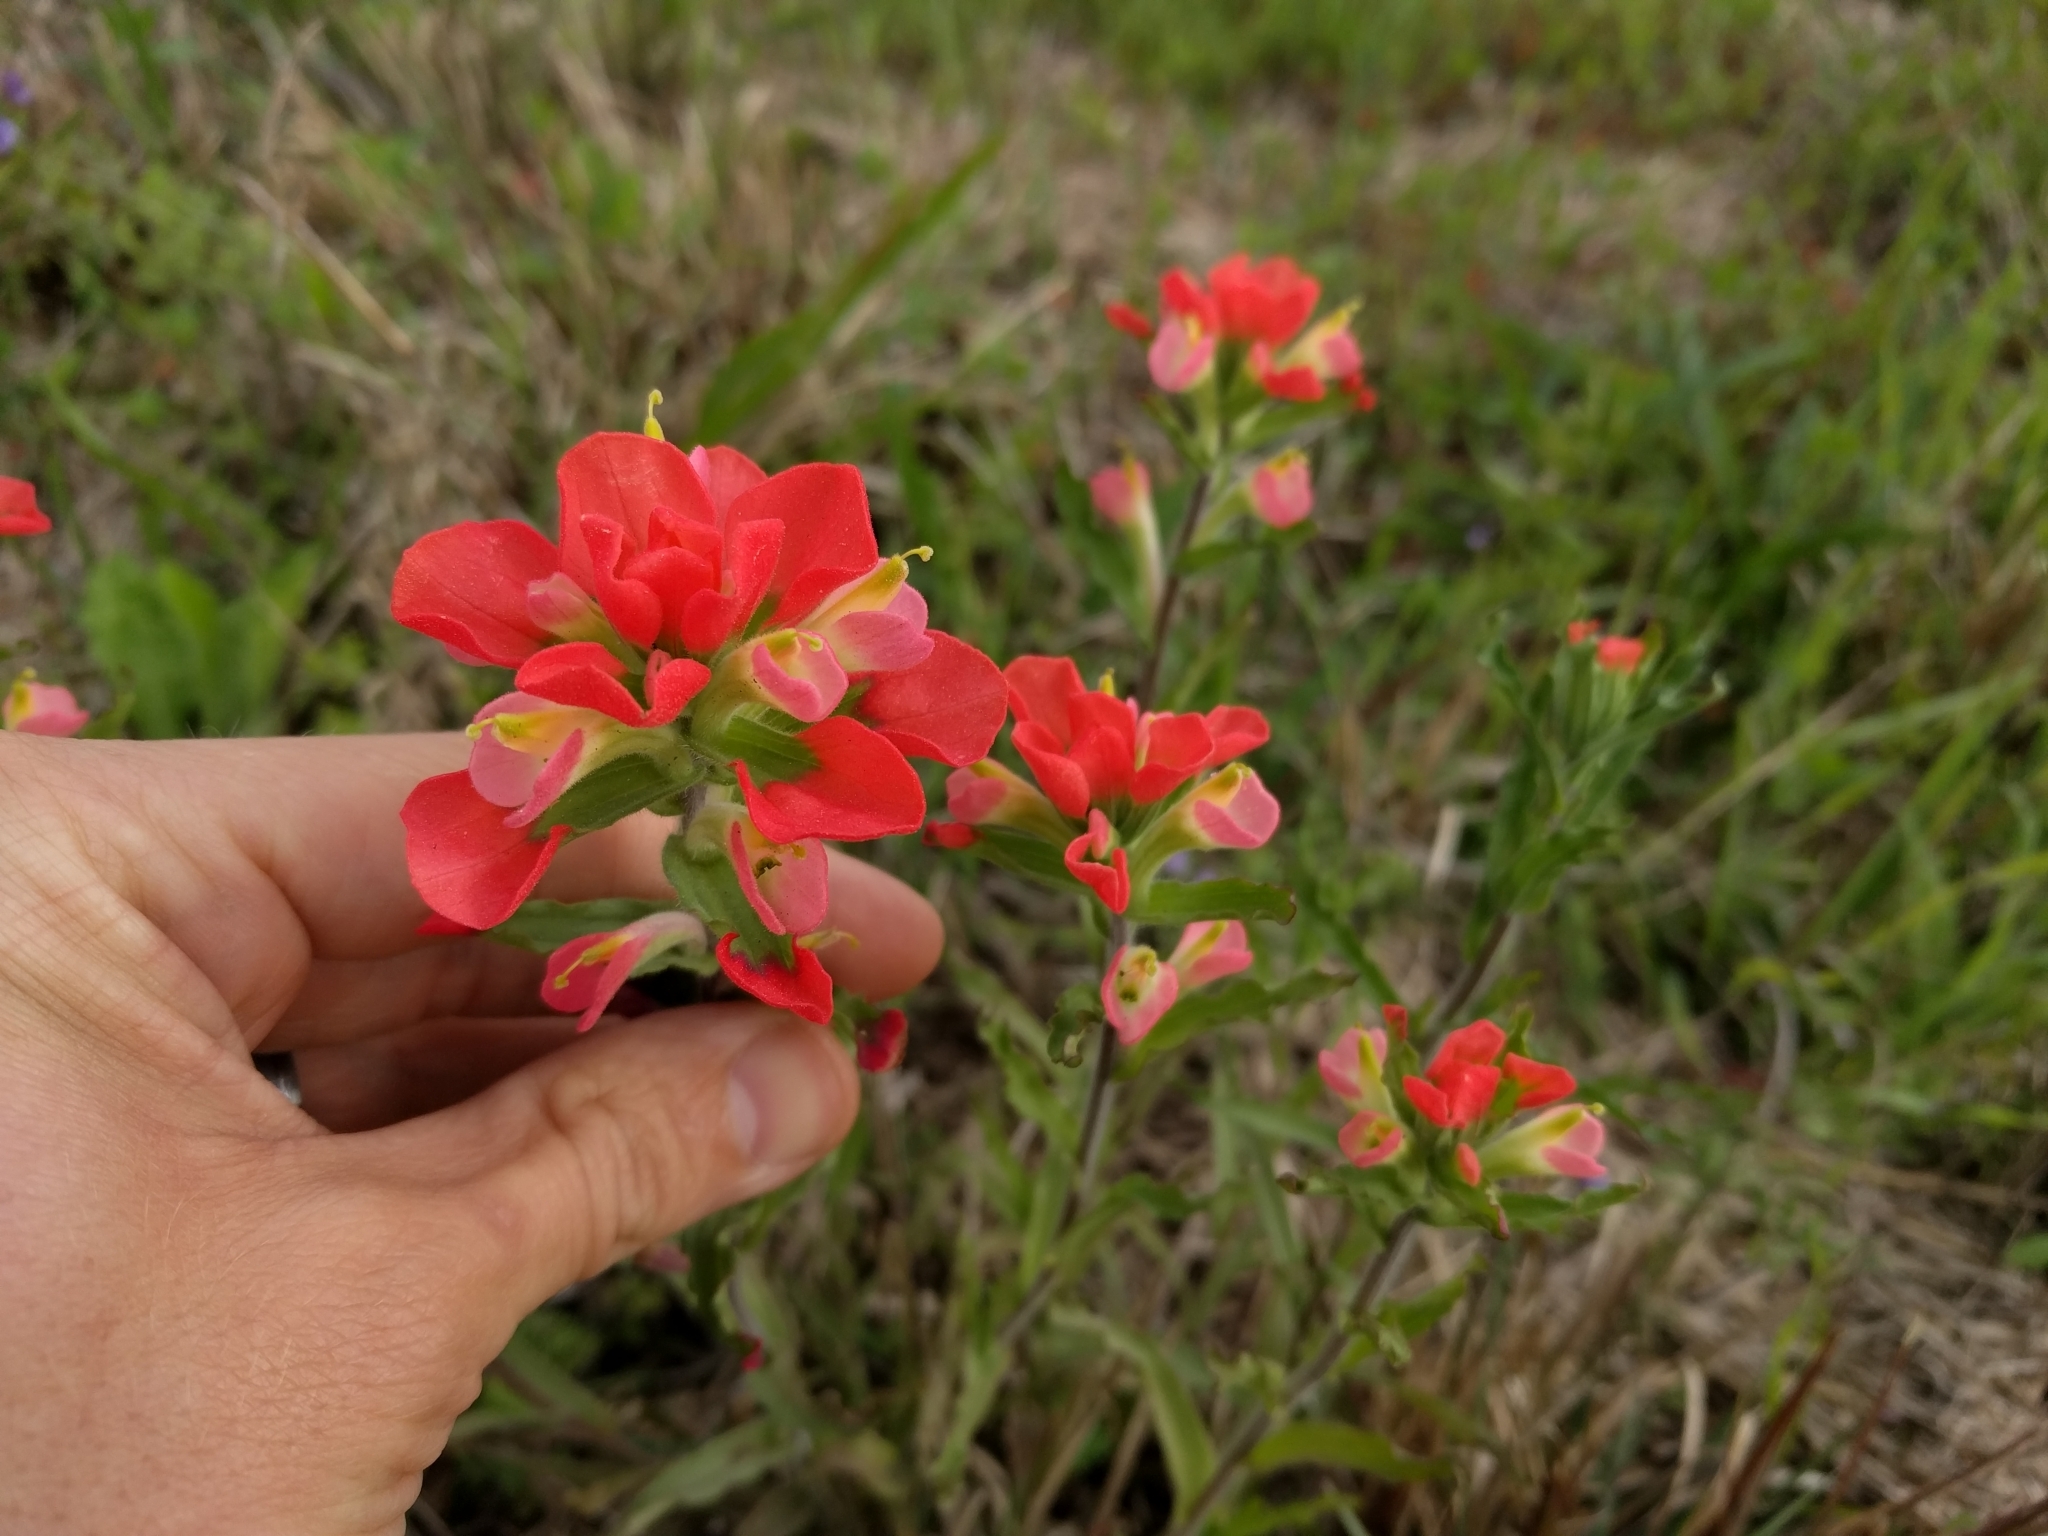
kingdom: Plantae
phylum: Tracheophyta
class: Magnoliopsida
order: Lamiales
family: Orobanchaceae
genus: Castilleja
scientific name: Castilleja indivisa
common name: Texas paintbrush
